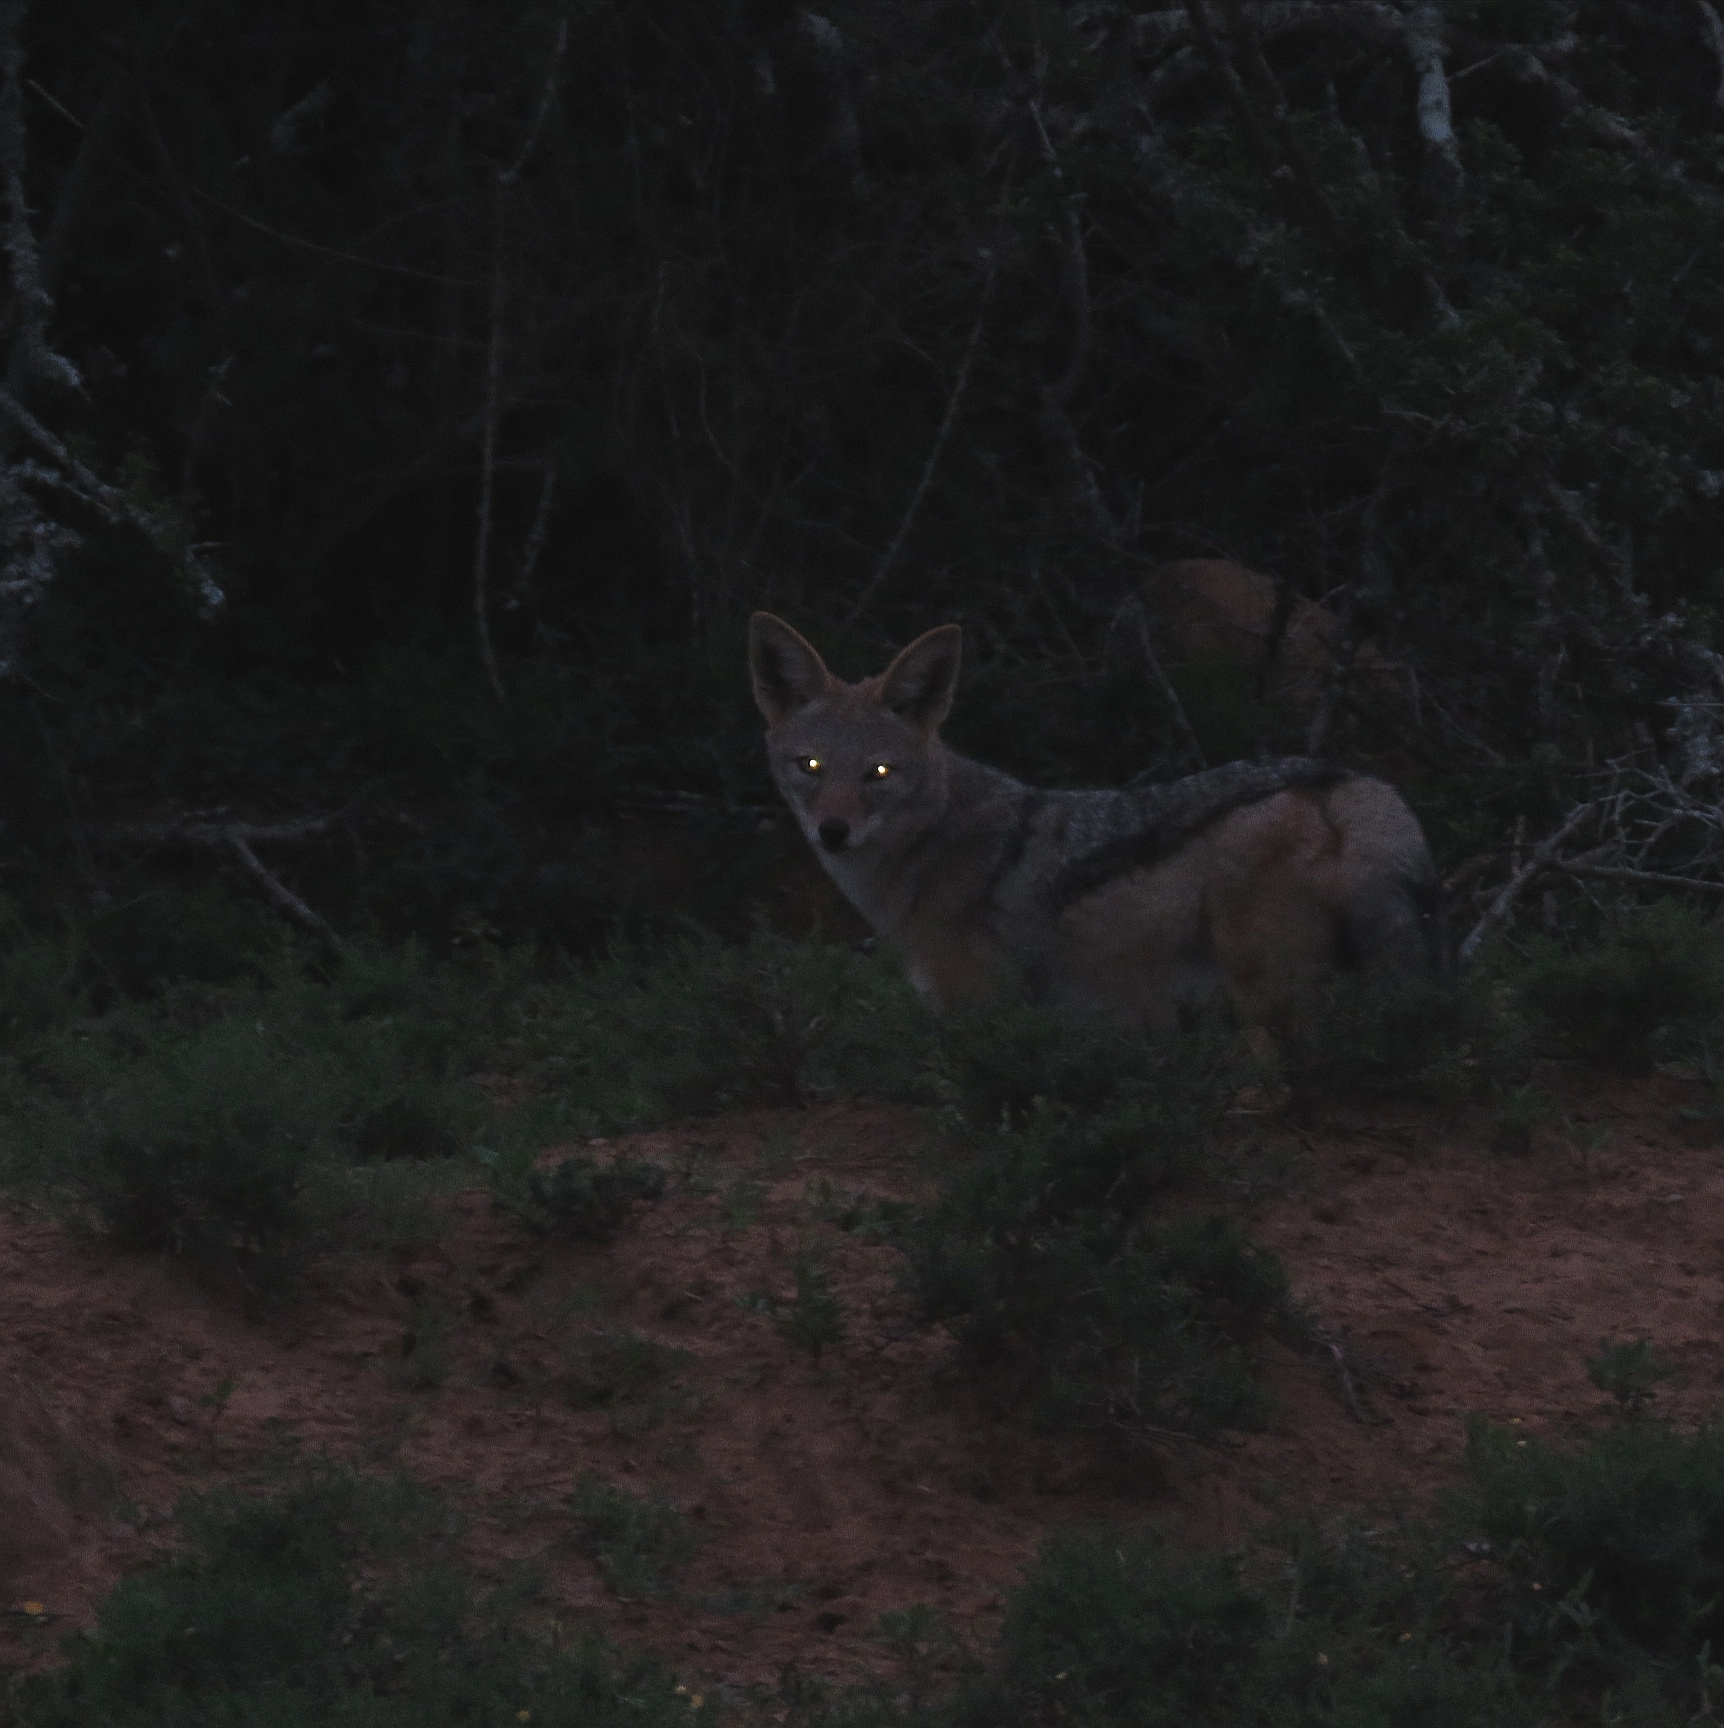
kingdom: Animalia
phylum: Chordata
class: Mammalia
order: Carnivora
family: Canidae
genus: Lupulella
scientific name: Lupulella
